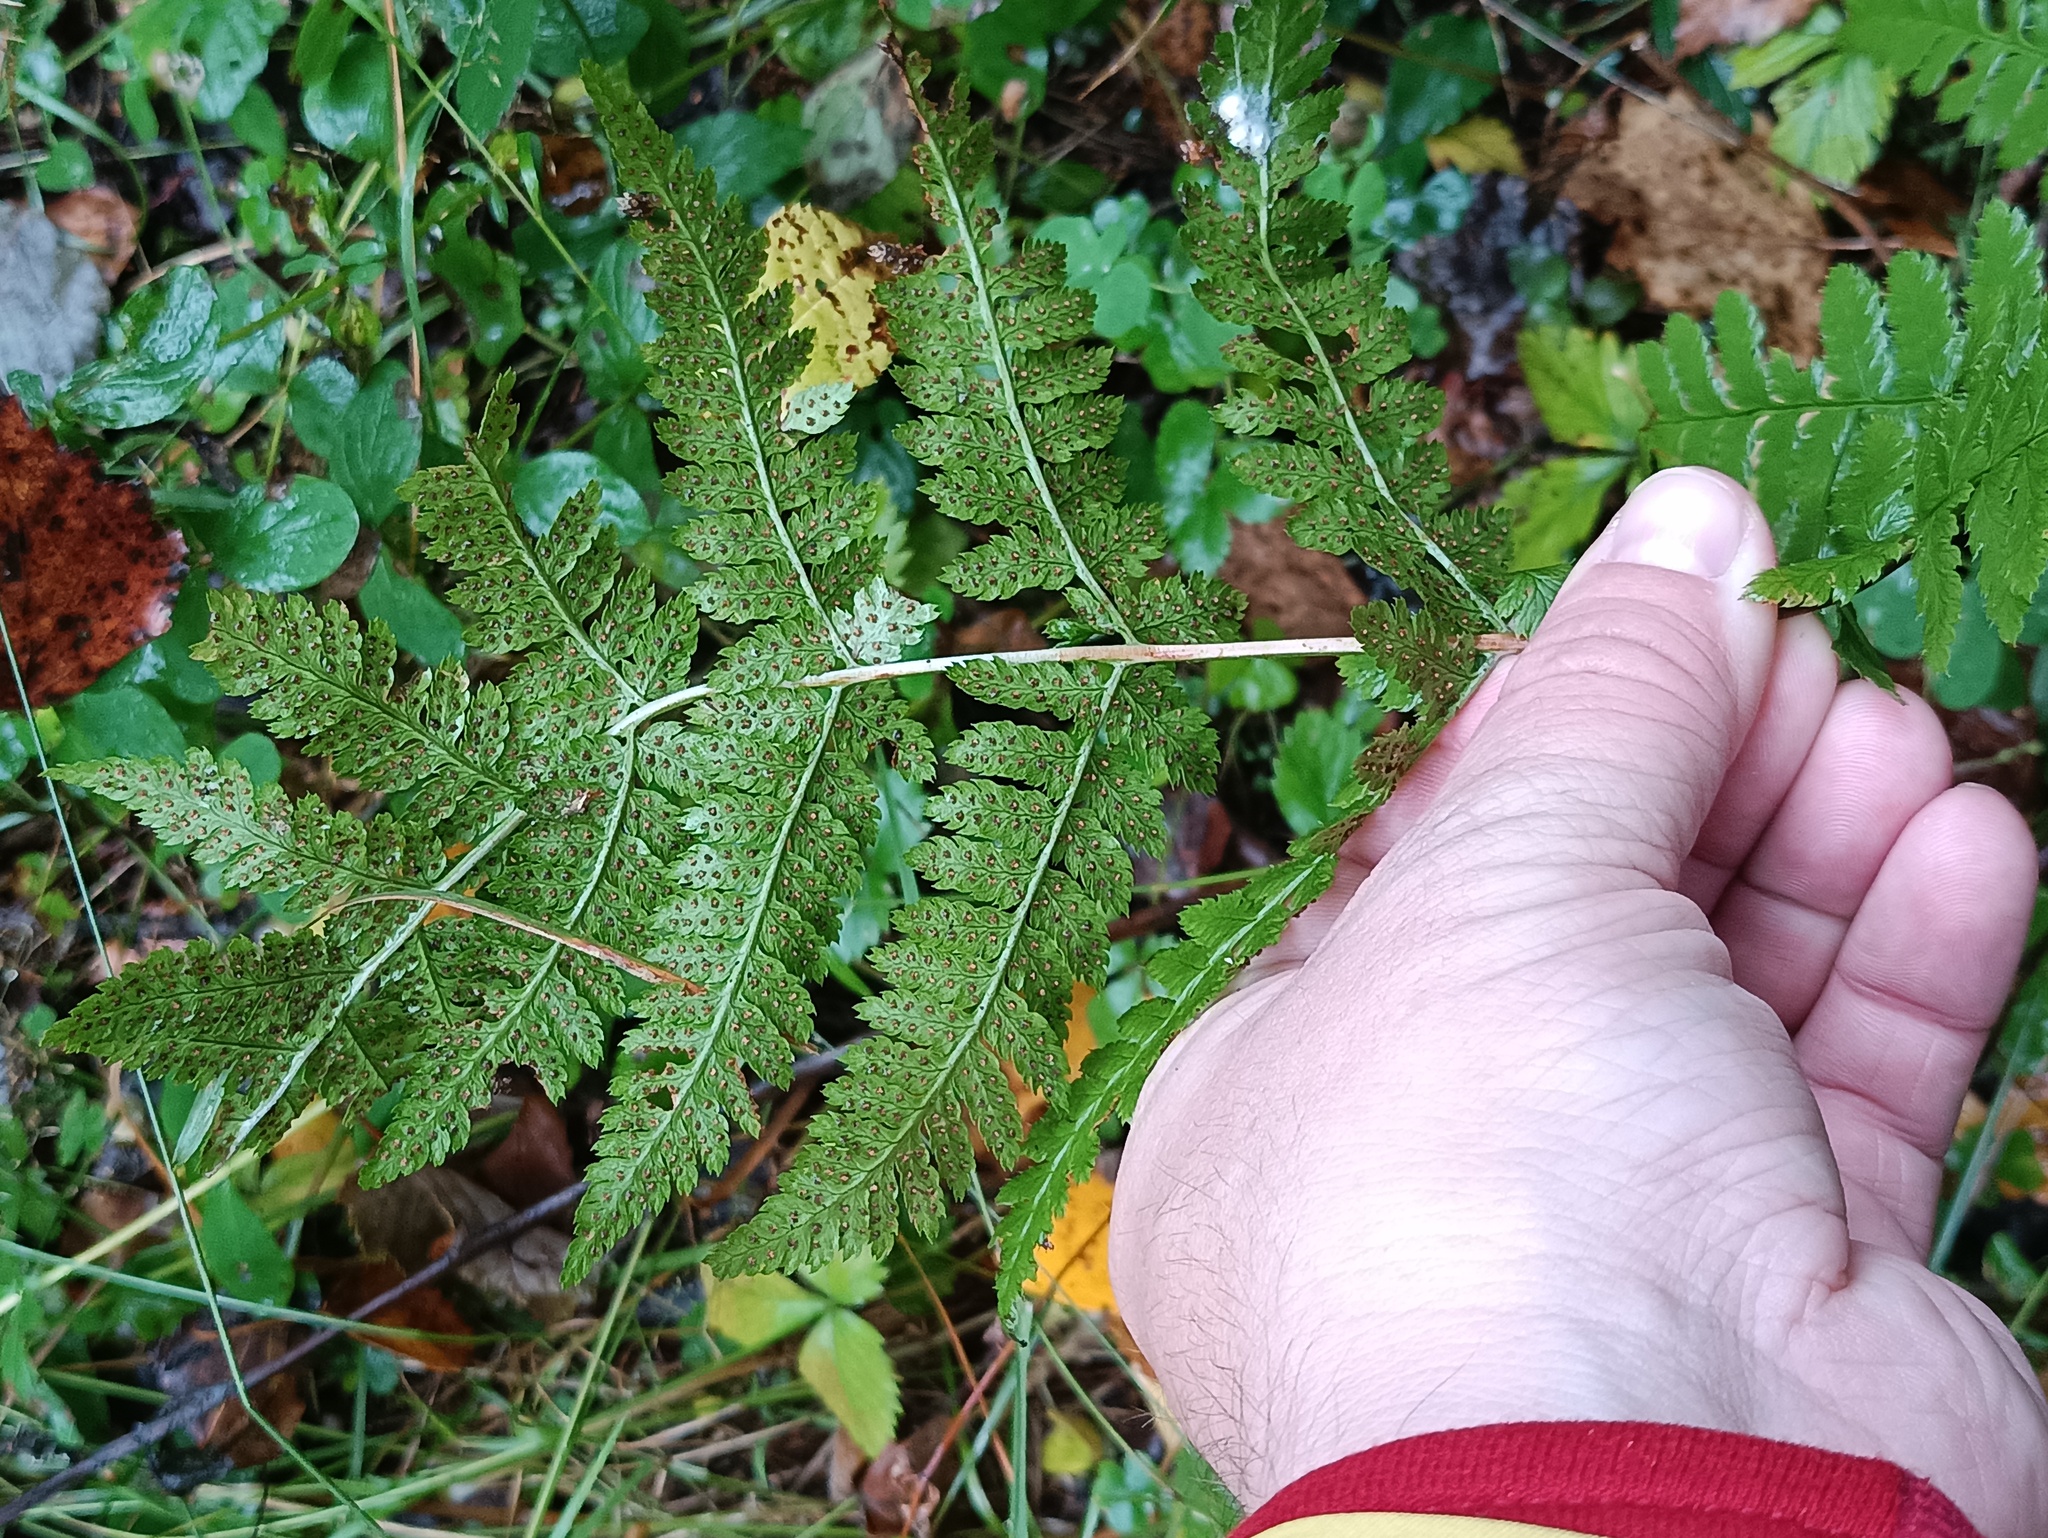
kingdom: Plantae
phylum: Tracheophyta
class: Polypodiopsida
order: Polypodiales
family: Dryopteridaceae
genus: Dryopteris
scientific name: Dryopteris carthusiana
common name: Narrow buckler-fern
